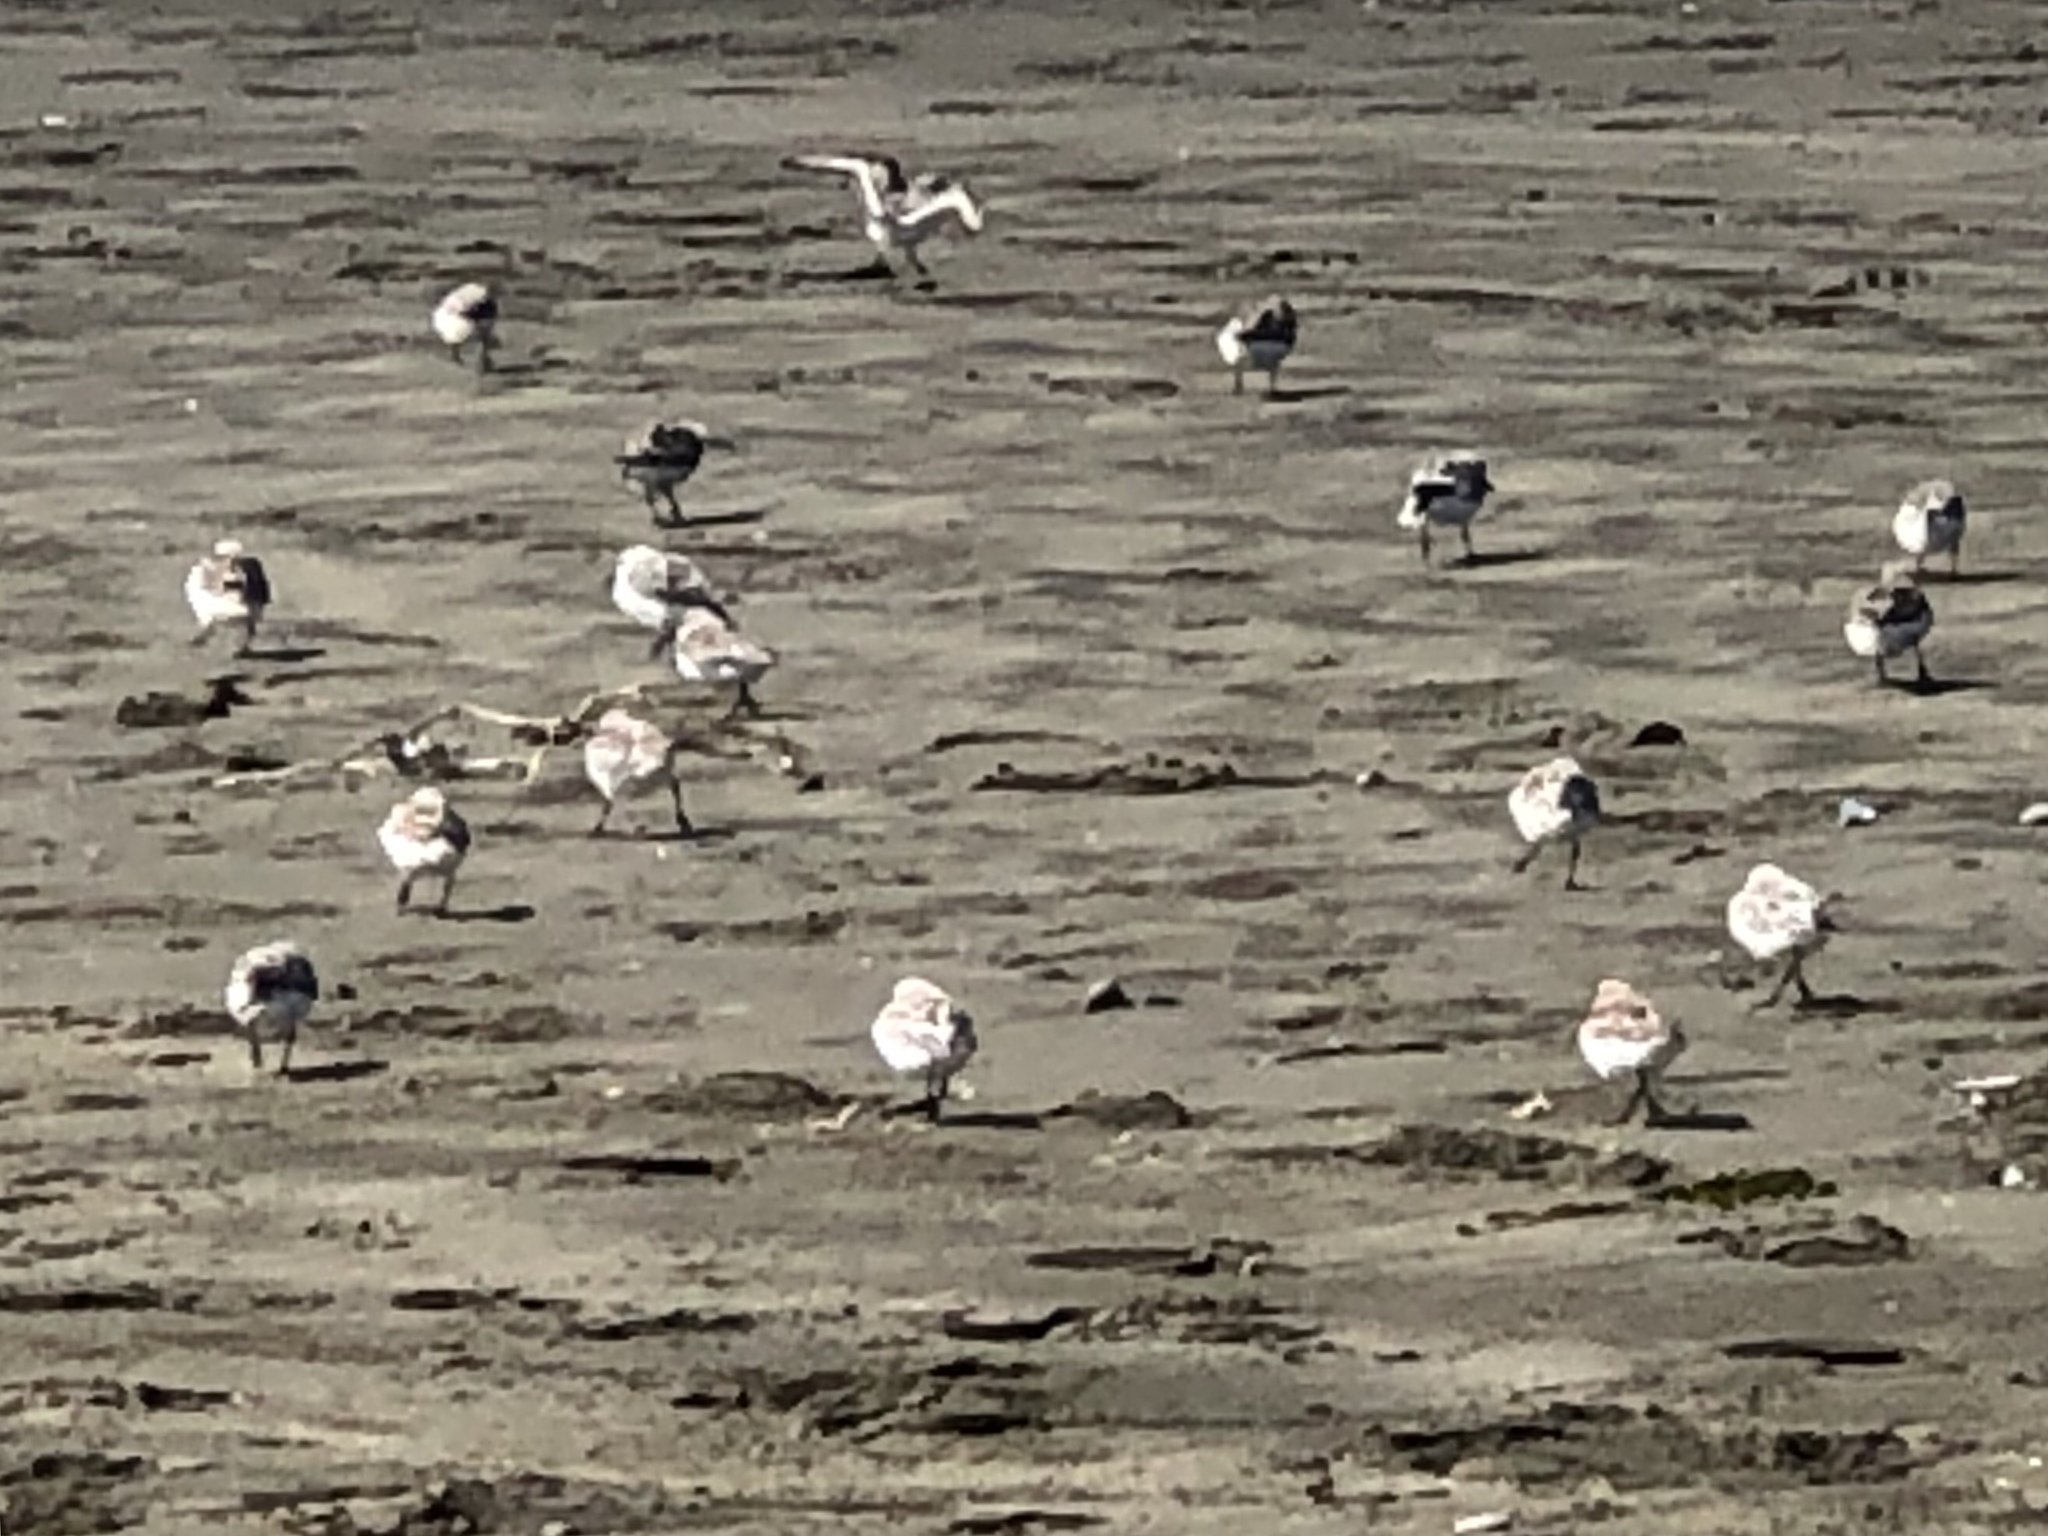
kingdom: Animalia
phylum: Chordata
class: Aves
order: Charadriiformes
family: Scolopacidae
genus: Calidris
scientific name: Calidris alba
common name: Sanderling
